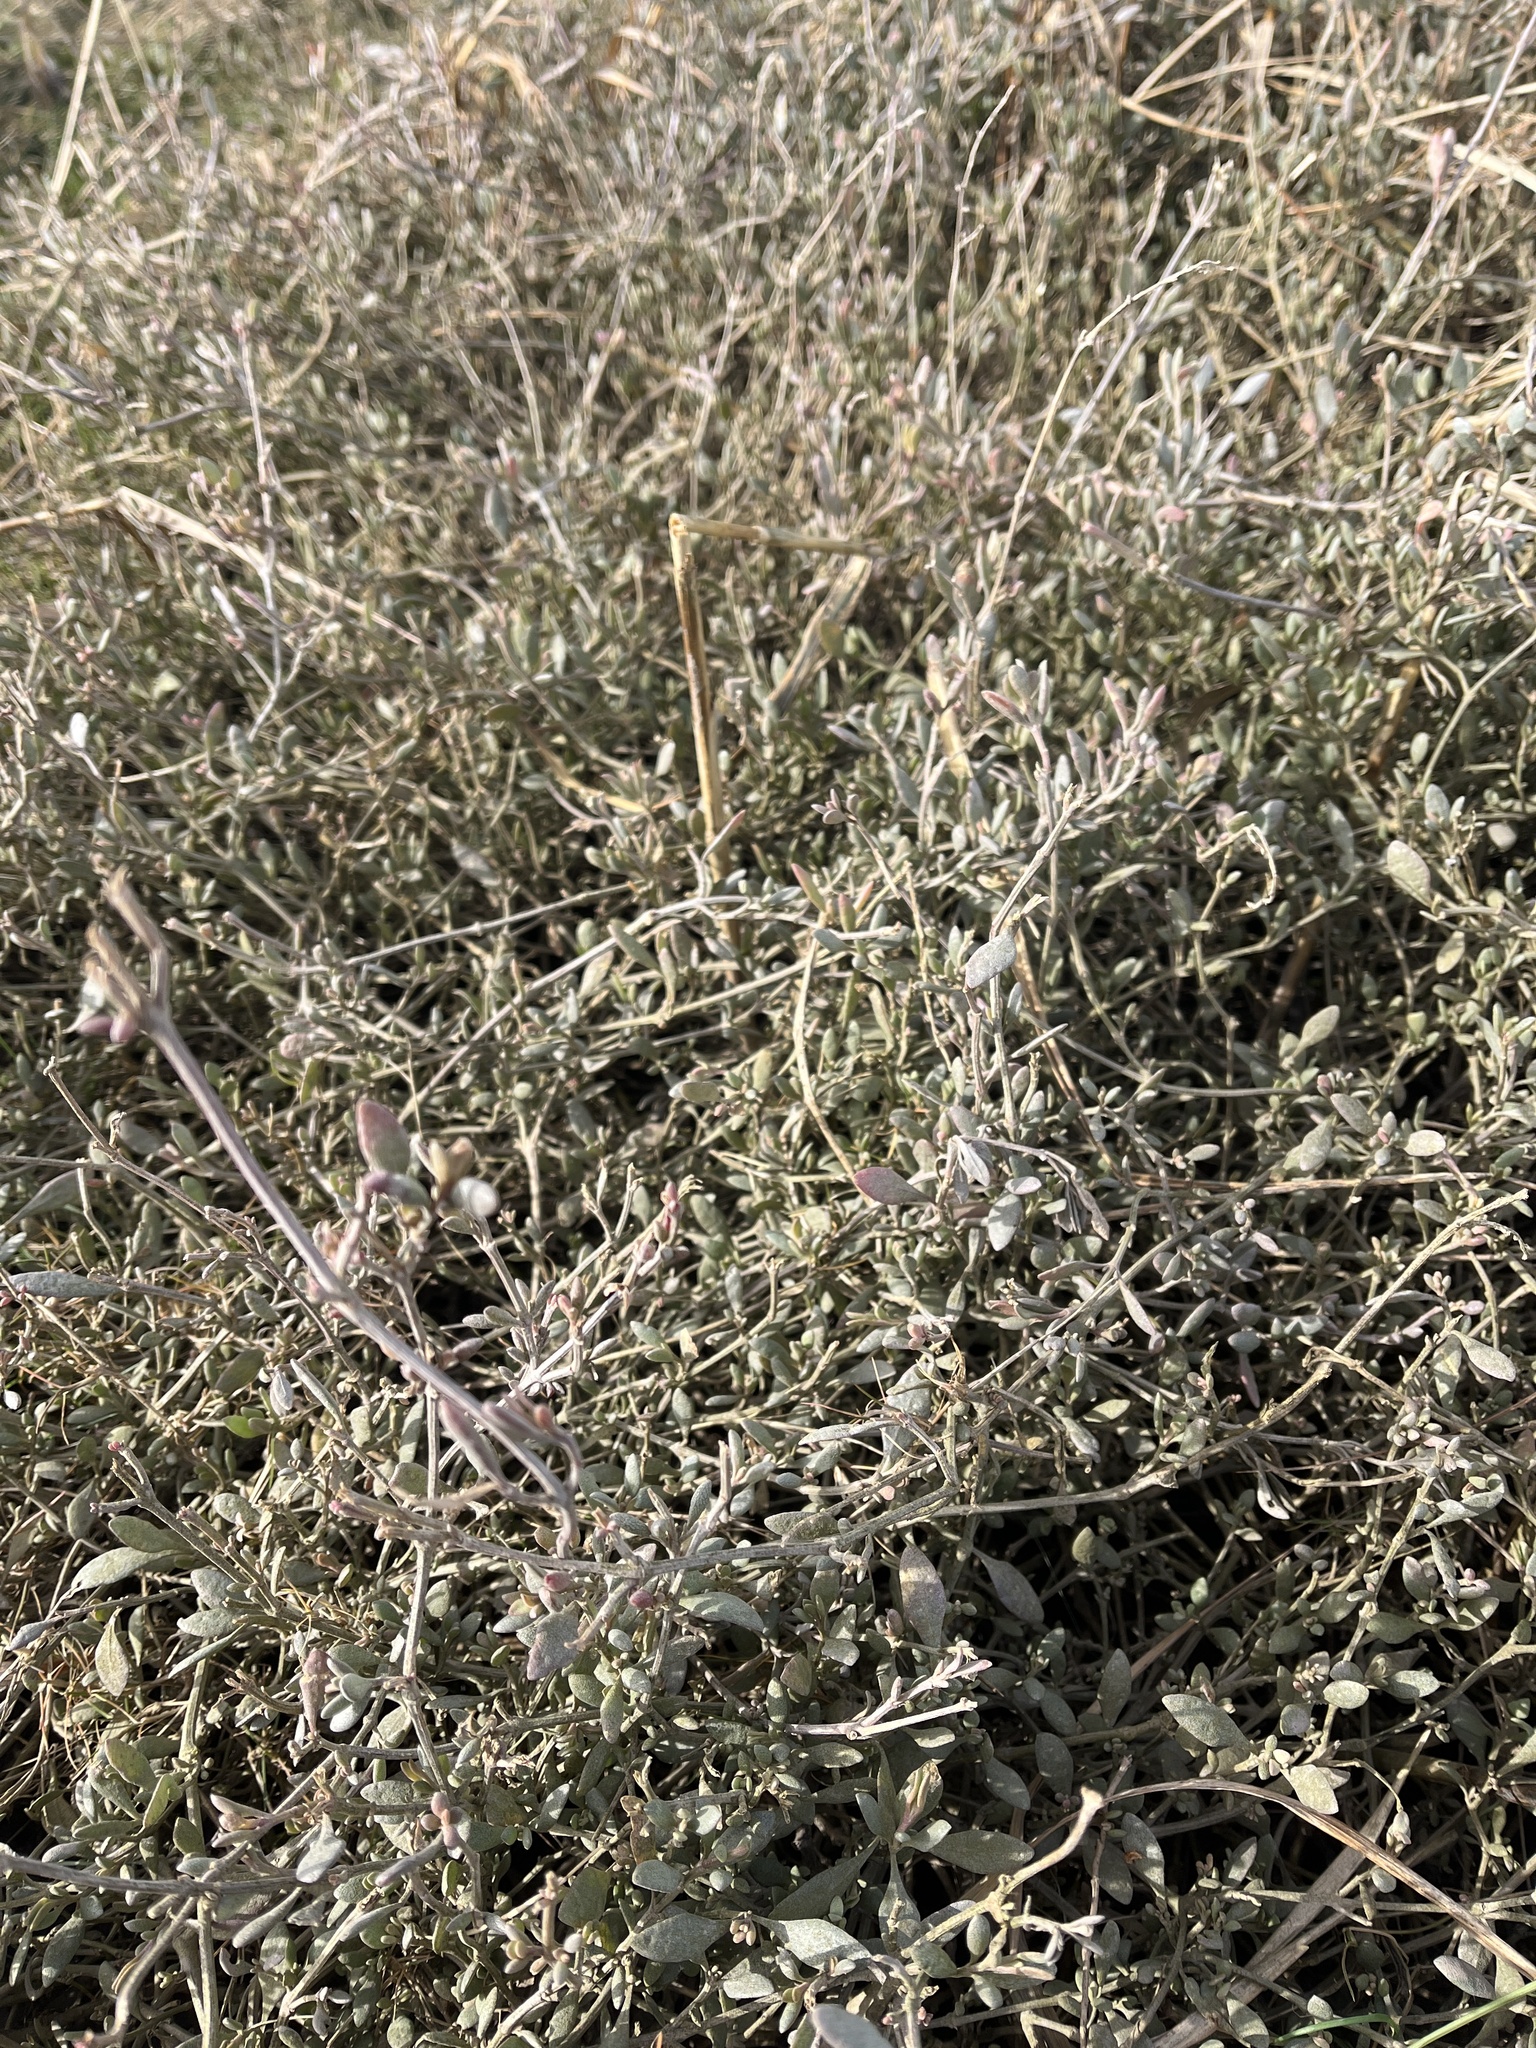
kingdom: Plantae
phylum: Tracheophyta
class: Magnoliopsida
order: Caryophyllales
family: Amaranthaceae
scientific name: Amaranthaceae
